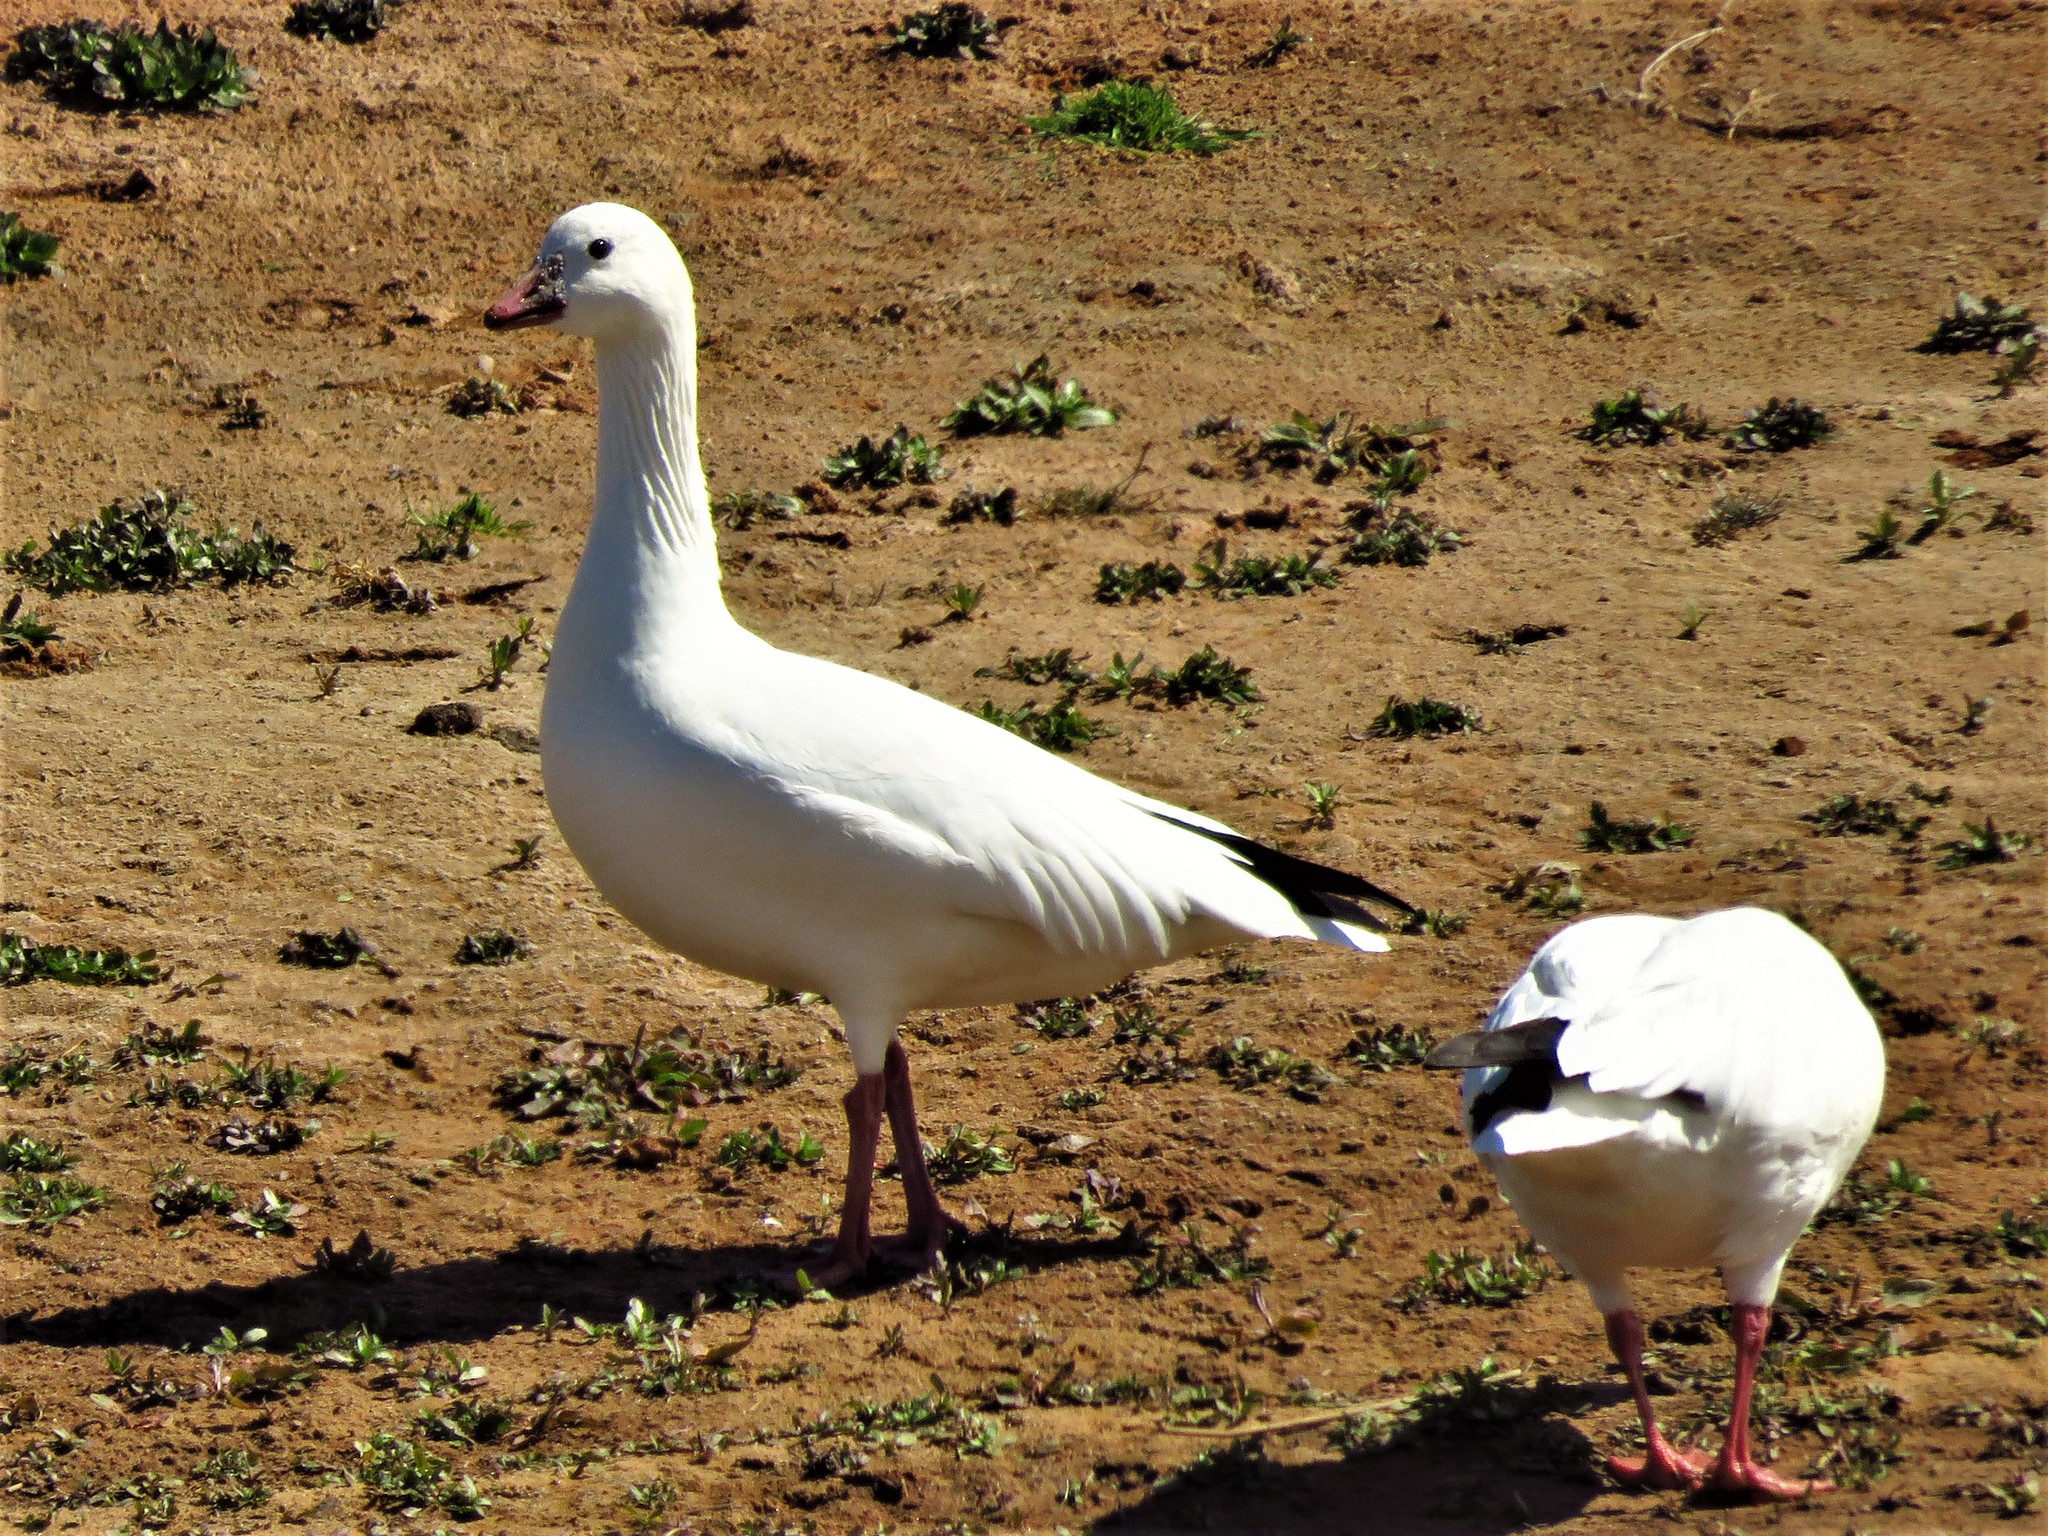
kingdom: Animalia
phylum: Chordata
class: Aves
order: Anseriformes
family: Anatidae
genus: Anser
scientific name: Anser rossii
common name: Ross's goose
